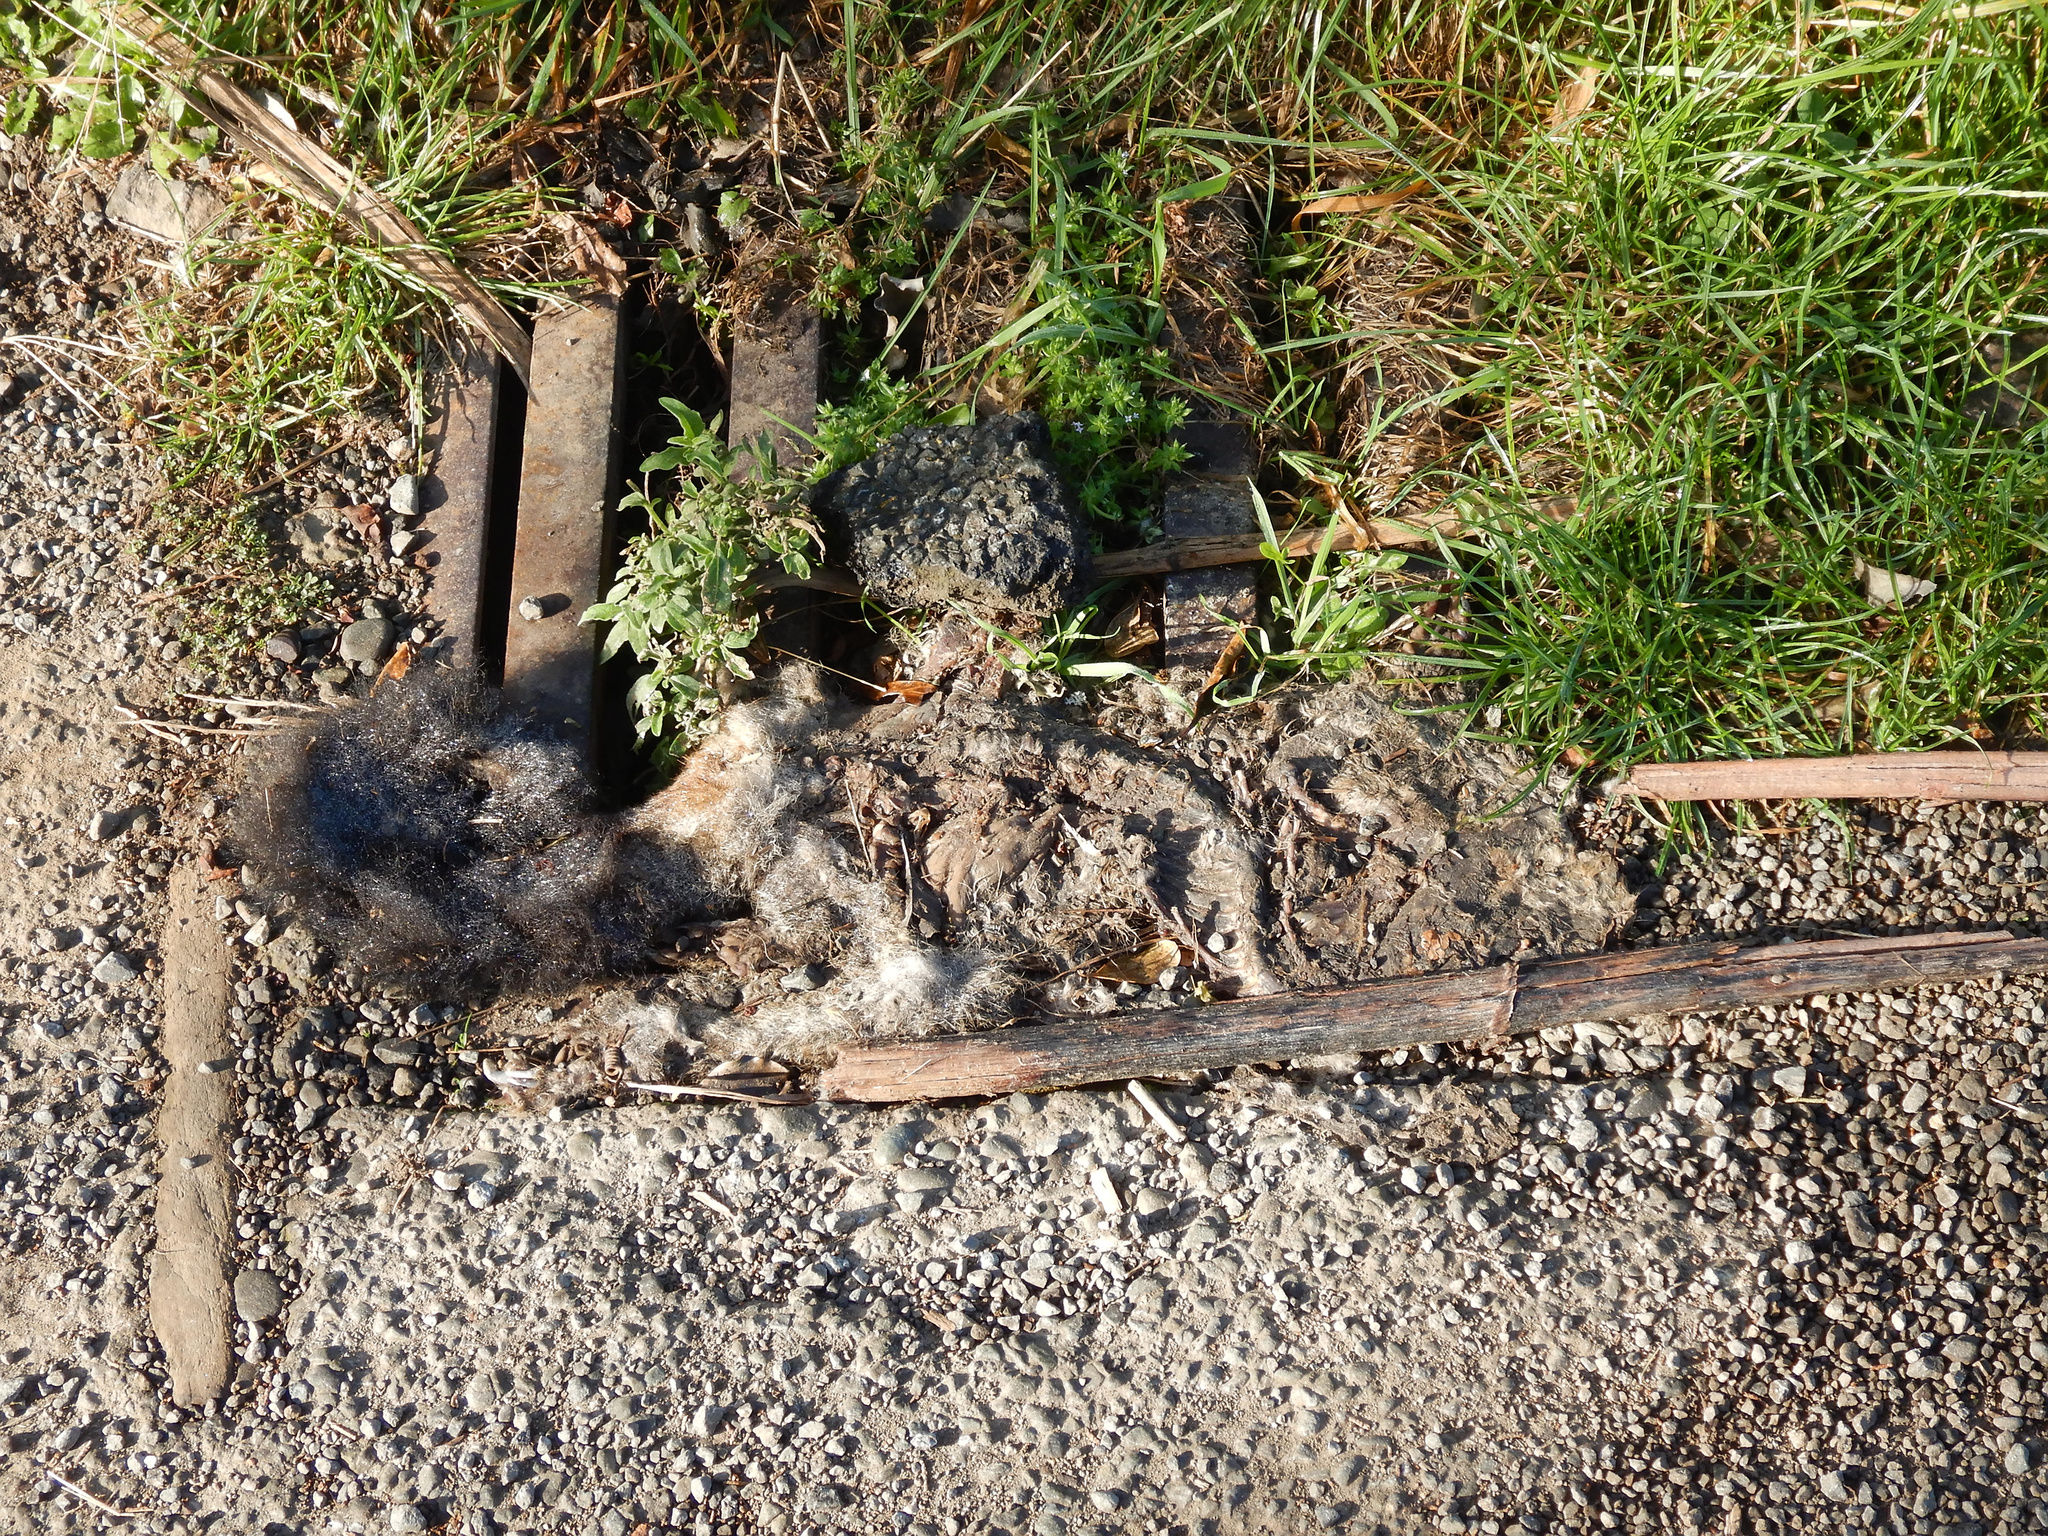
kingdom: Animalia
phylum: Chordata
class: Mammalia
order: Diprotodontia
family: Phalangeridae
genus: Trichosurus
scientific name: Trichosurus vulpecula
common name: Common brushtail
